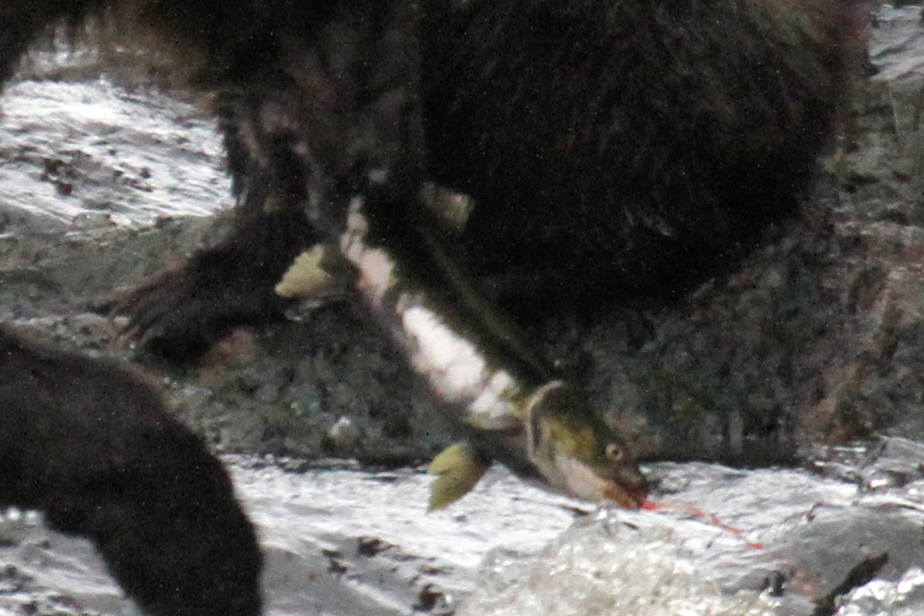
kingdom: Animalia
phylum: Chordata
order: Salmoniformes
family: Salmonidae
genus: Oncorhynchus
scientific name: Oncorhynchus keta
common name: Chum salmon
